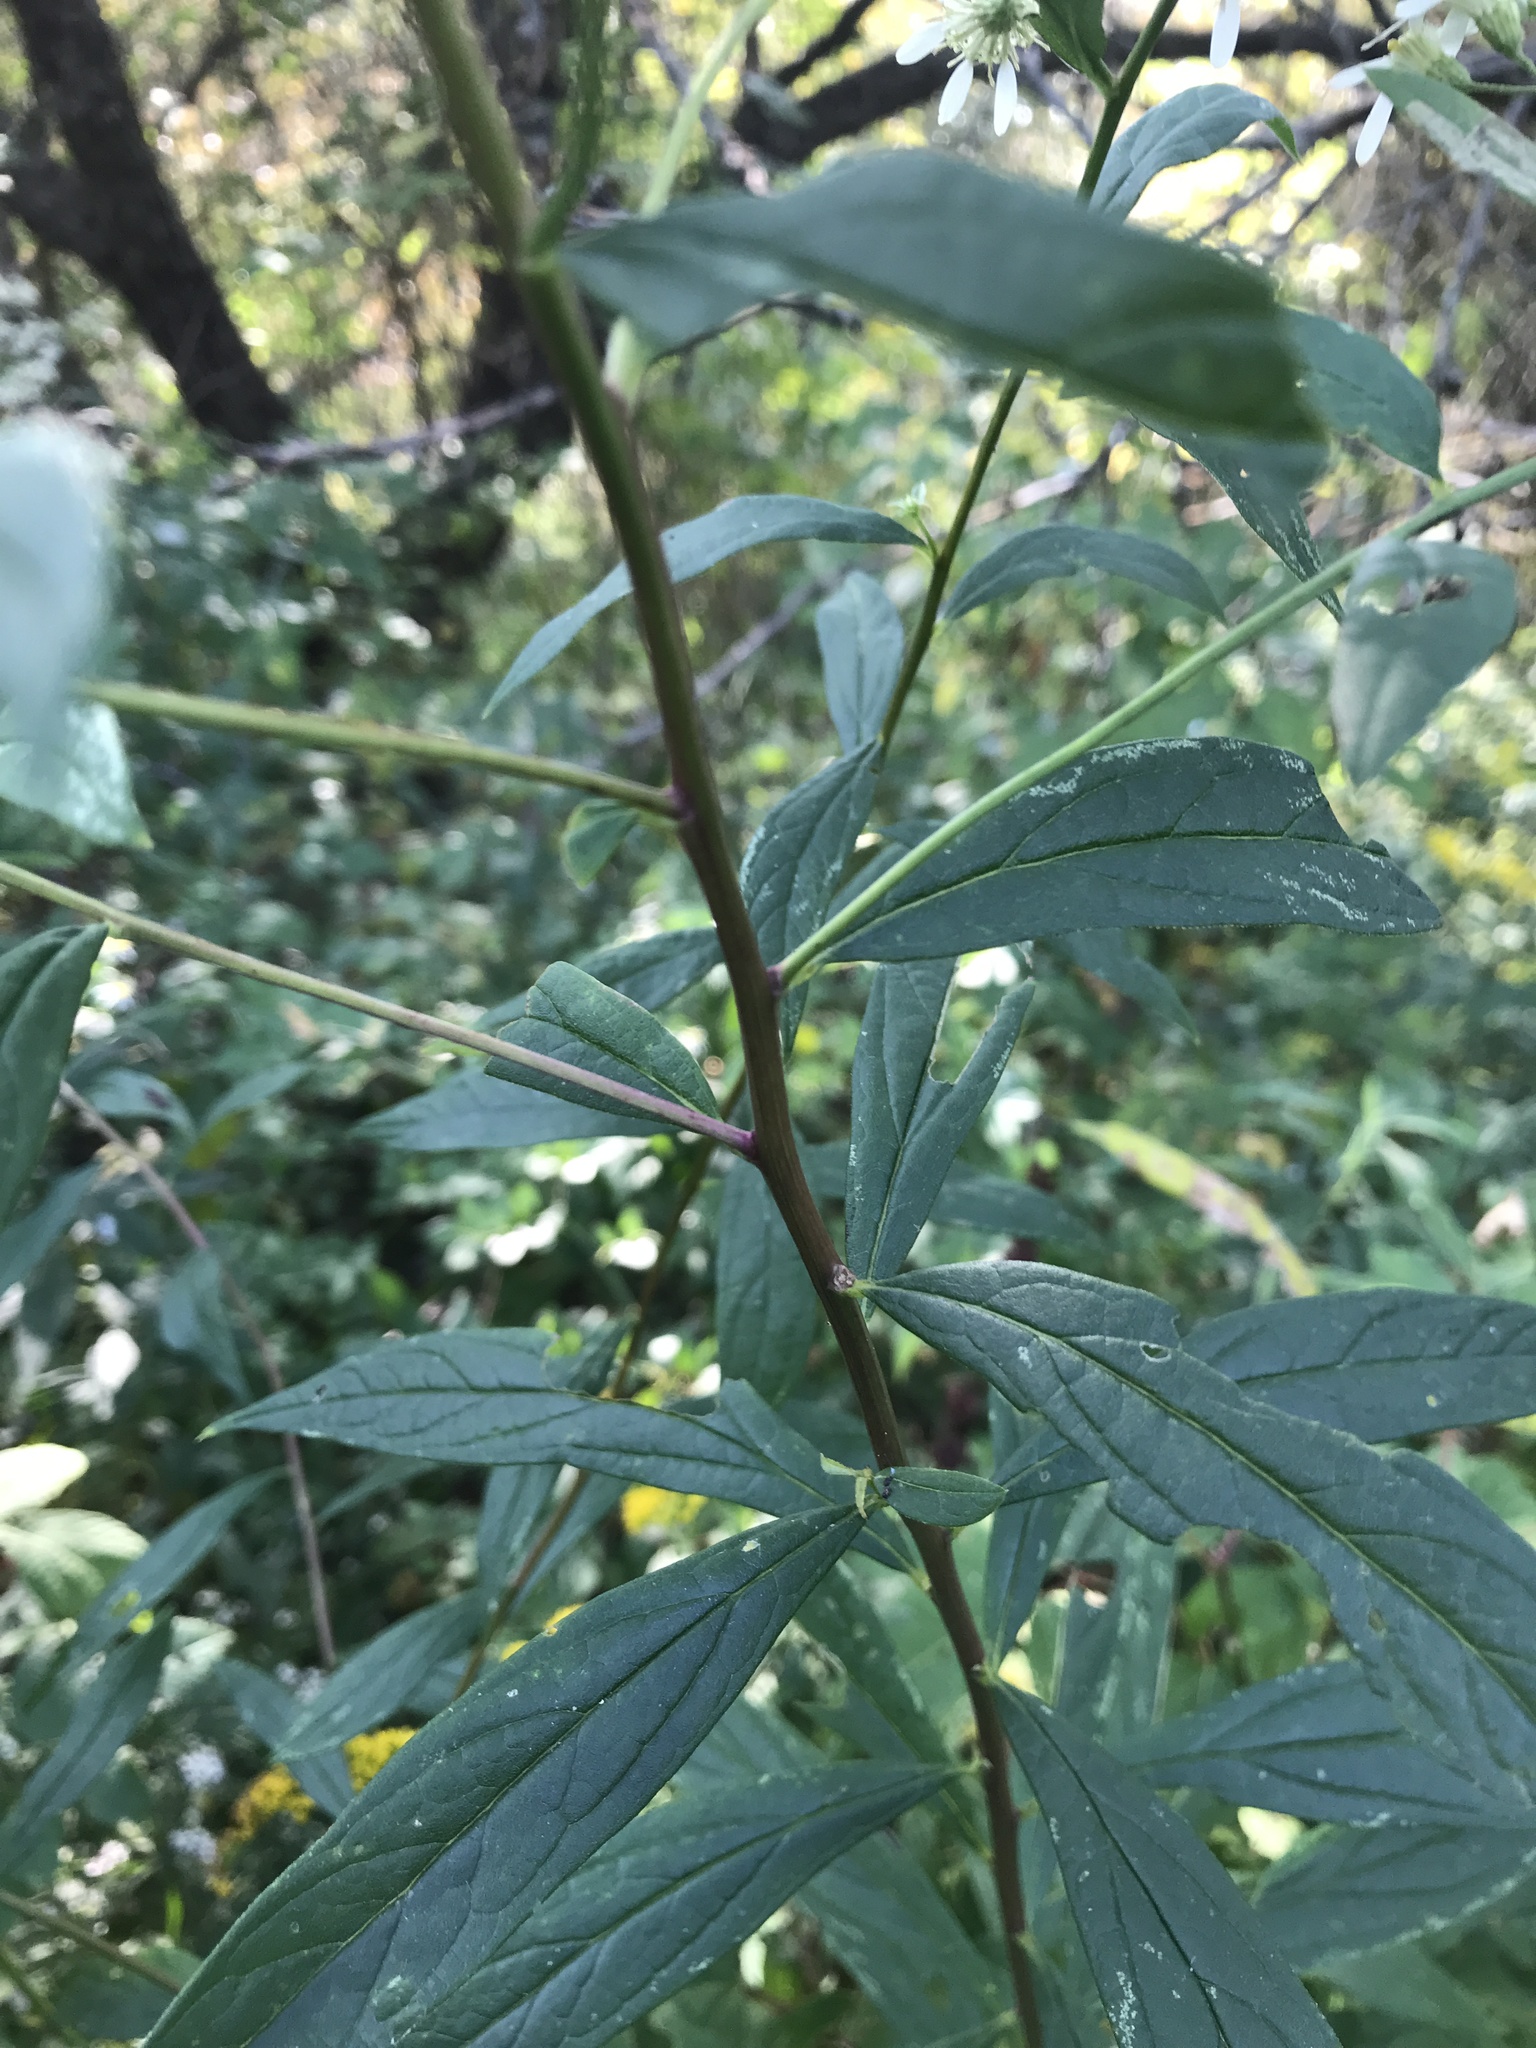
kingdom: Plantae
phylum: Tracheophyta
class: Magnoliopsida
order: Asterales
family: Asteraceae
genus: Doellingeria
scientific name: Doellingeria umbellata
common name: Flat-top white aster
